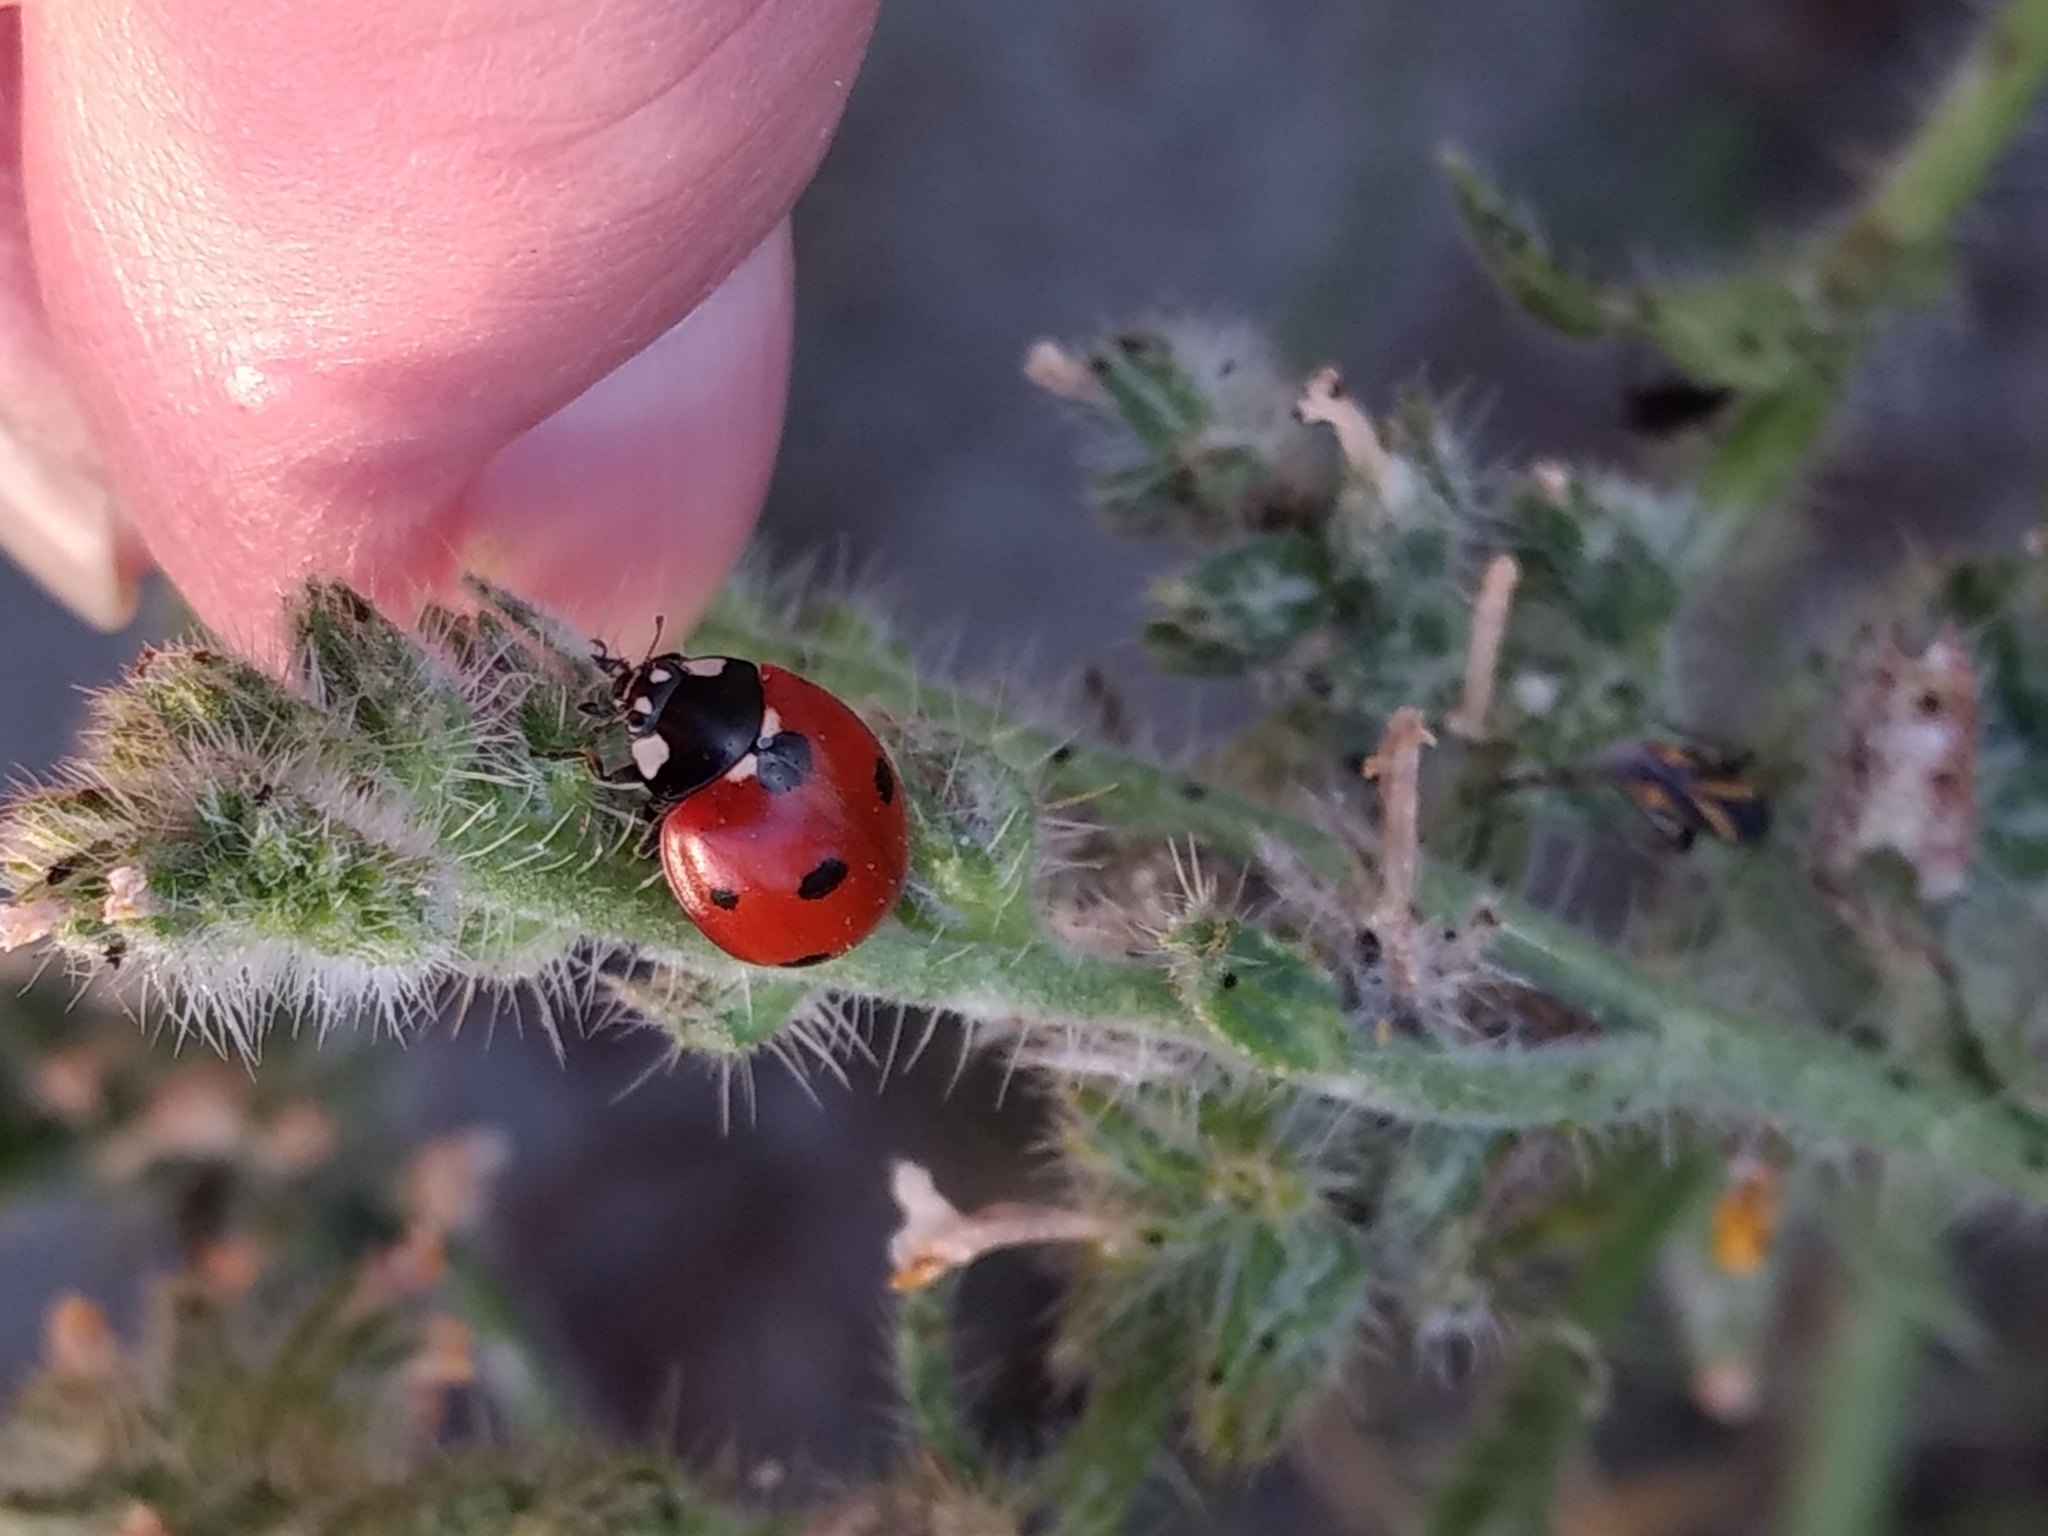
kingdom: Animalia
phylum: Arthropoda
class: Insecta
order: Coleoptera
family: Coccinellidae
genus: Coccinella
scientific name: Coccinella septempunctata
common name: Sevenspotted lady beetle
